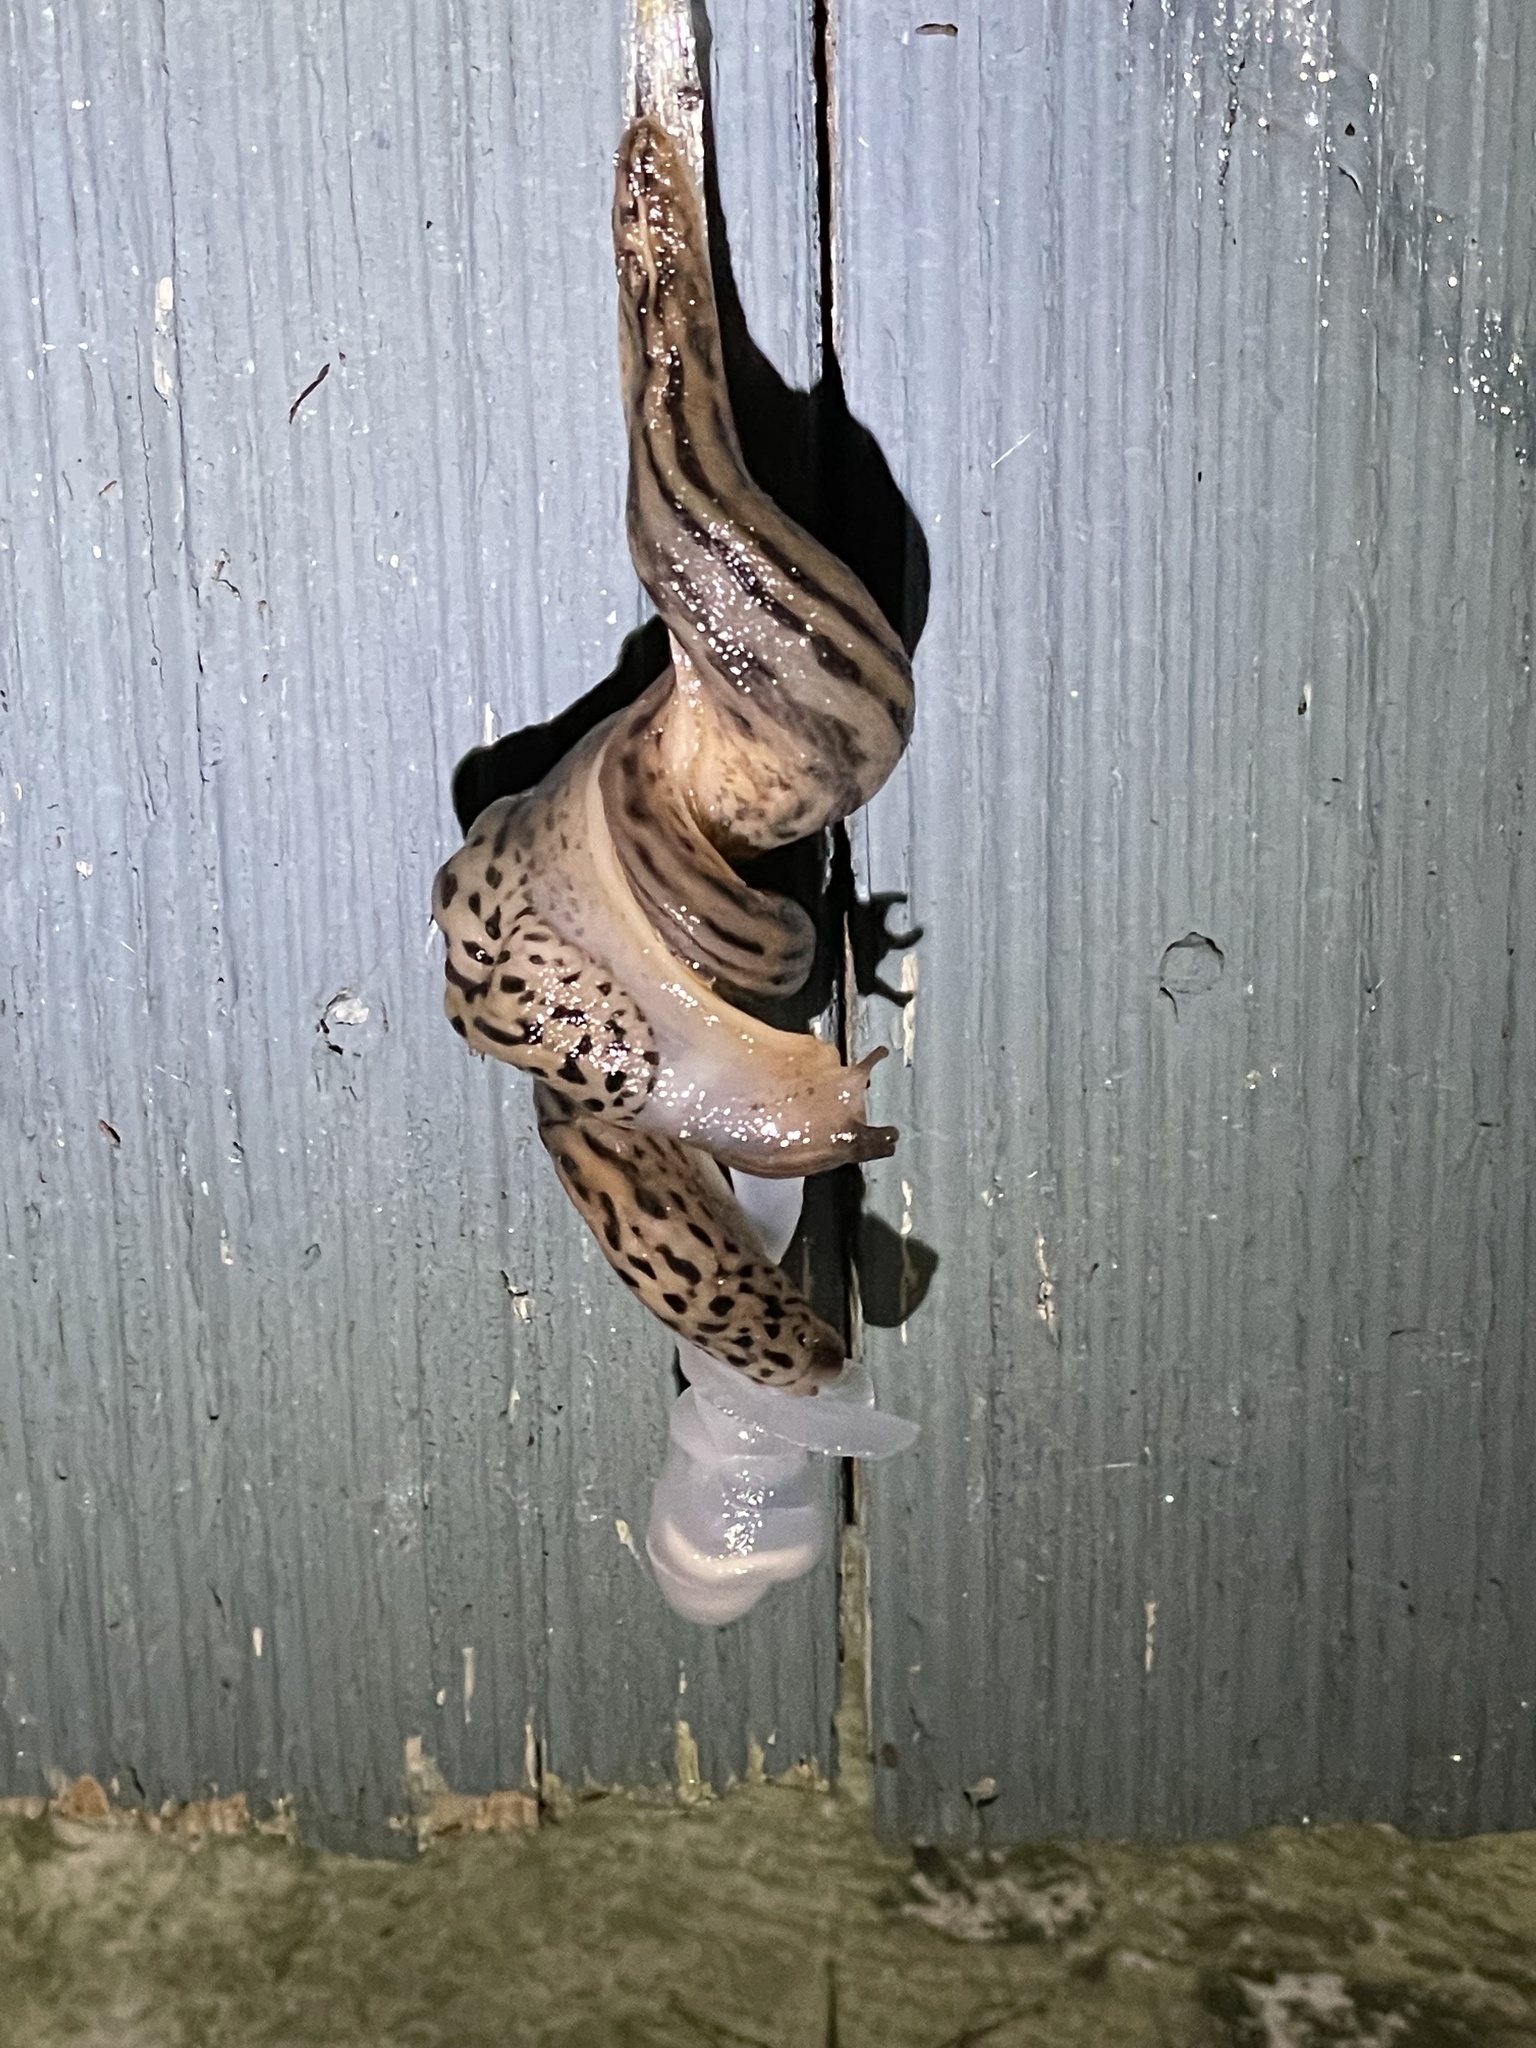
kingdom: Animalia
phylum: Mollusca
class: Gastropoda
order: Stylommatophora
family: Limacidae
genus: Limax
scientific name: Limax maximus
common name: Great grey slug
